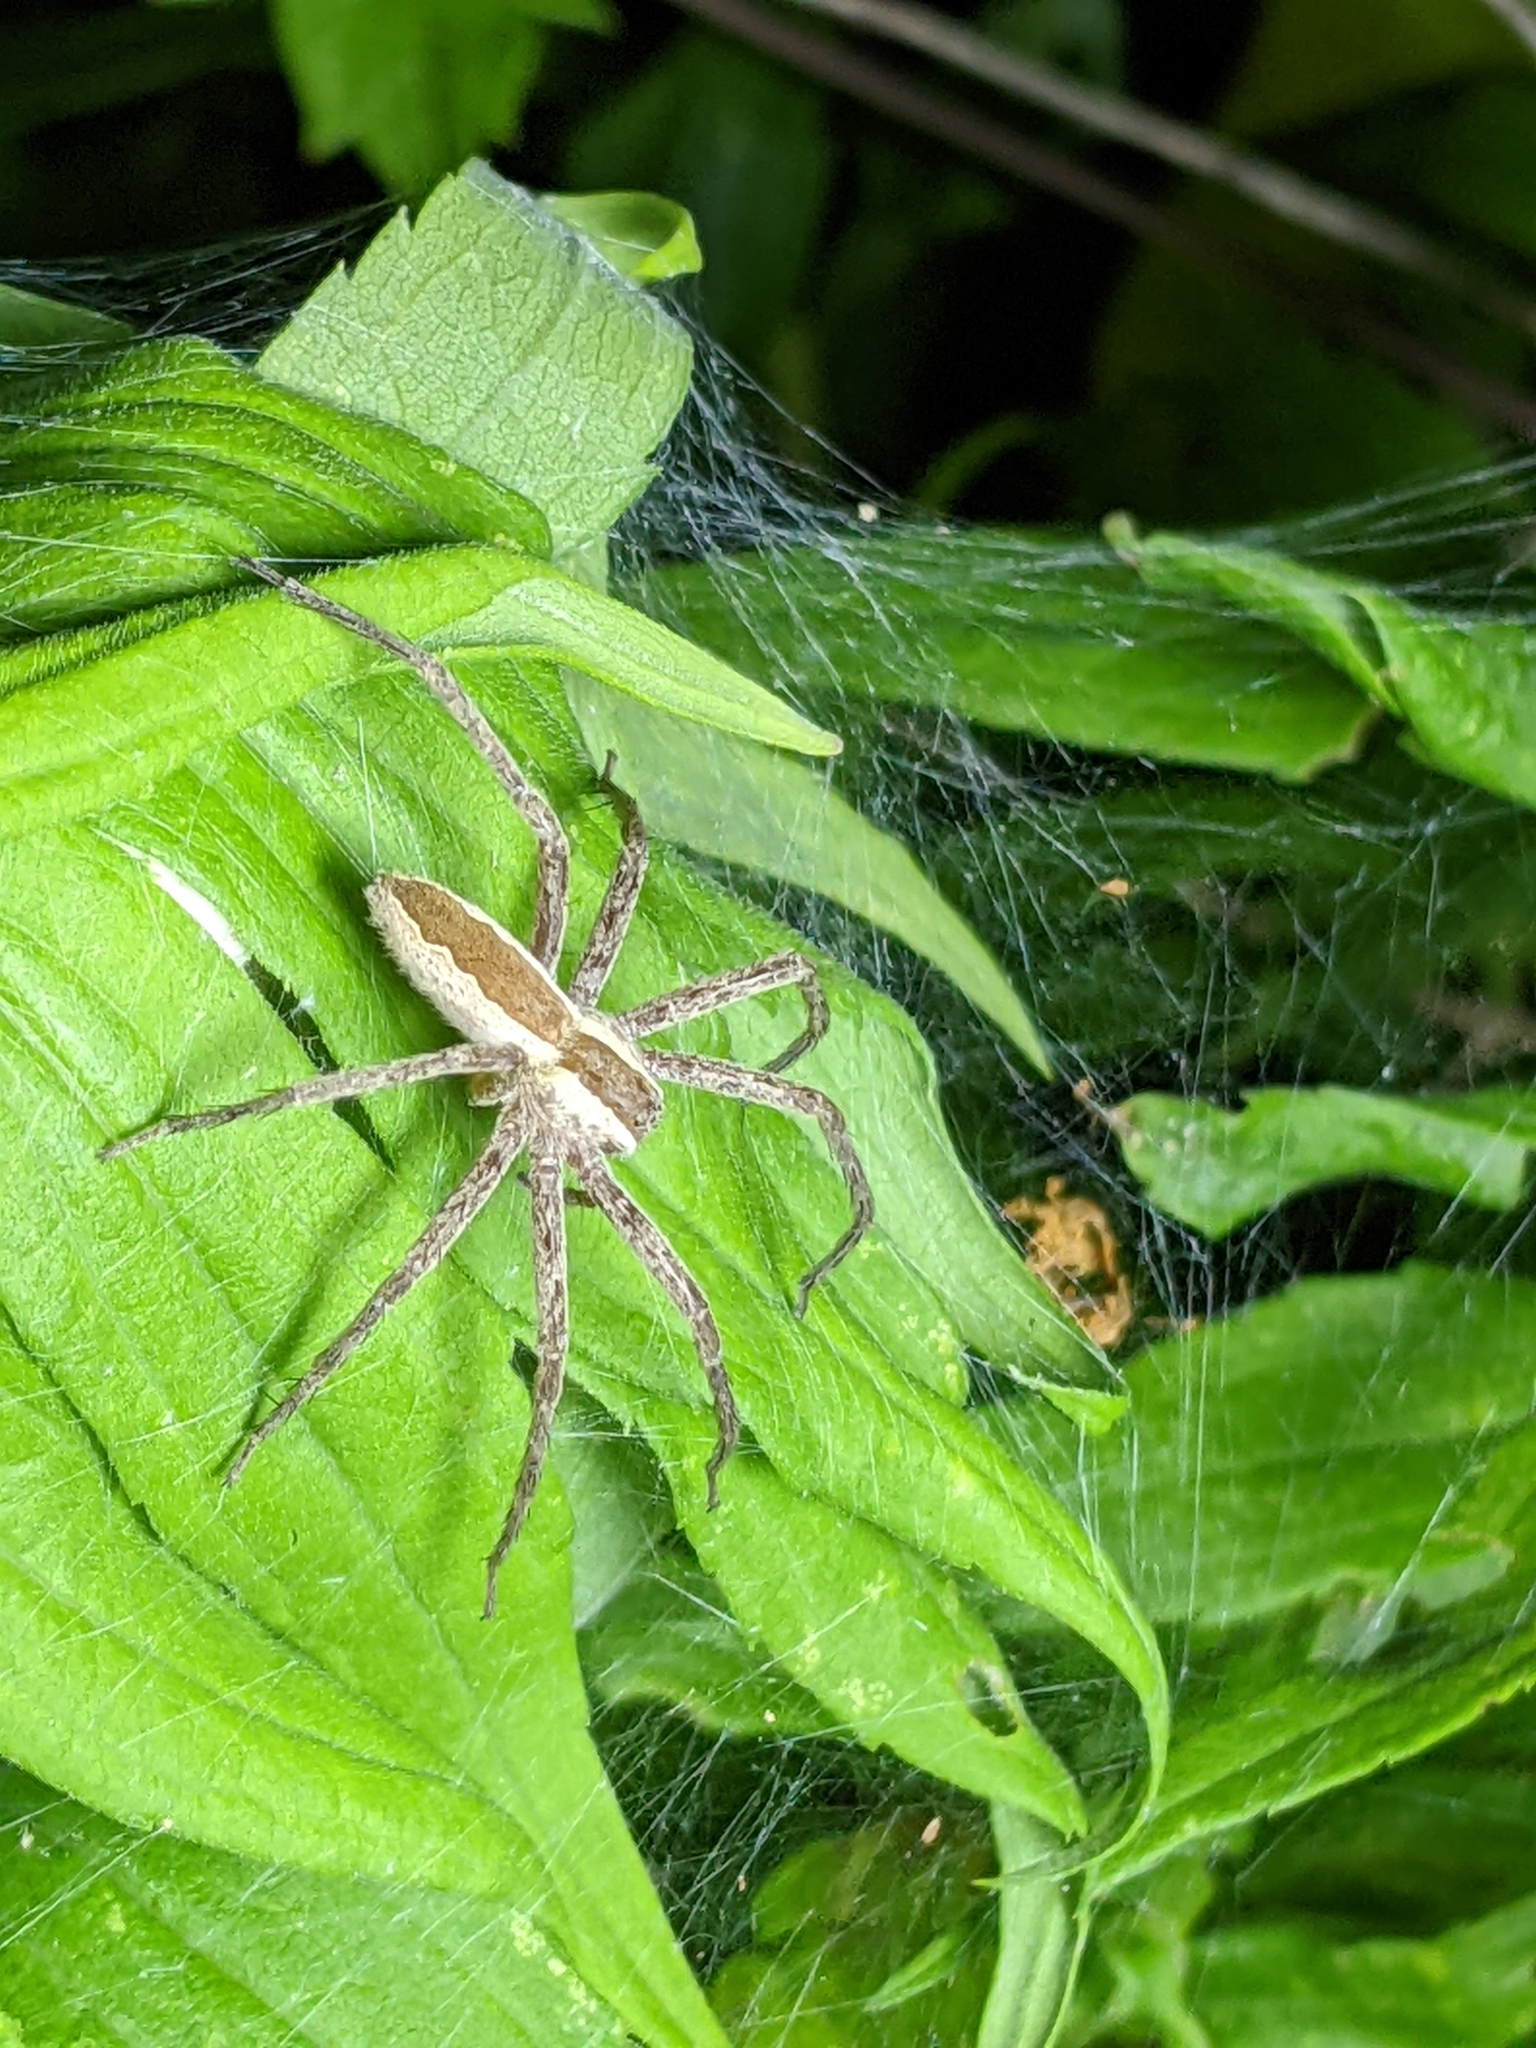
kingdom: Animalia
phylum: Arthropoda
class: Arachnida
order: Araneae
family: Pisauridae
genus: Pisaurina
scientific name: Pisaurina mira
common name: American nursery web spider
